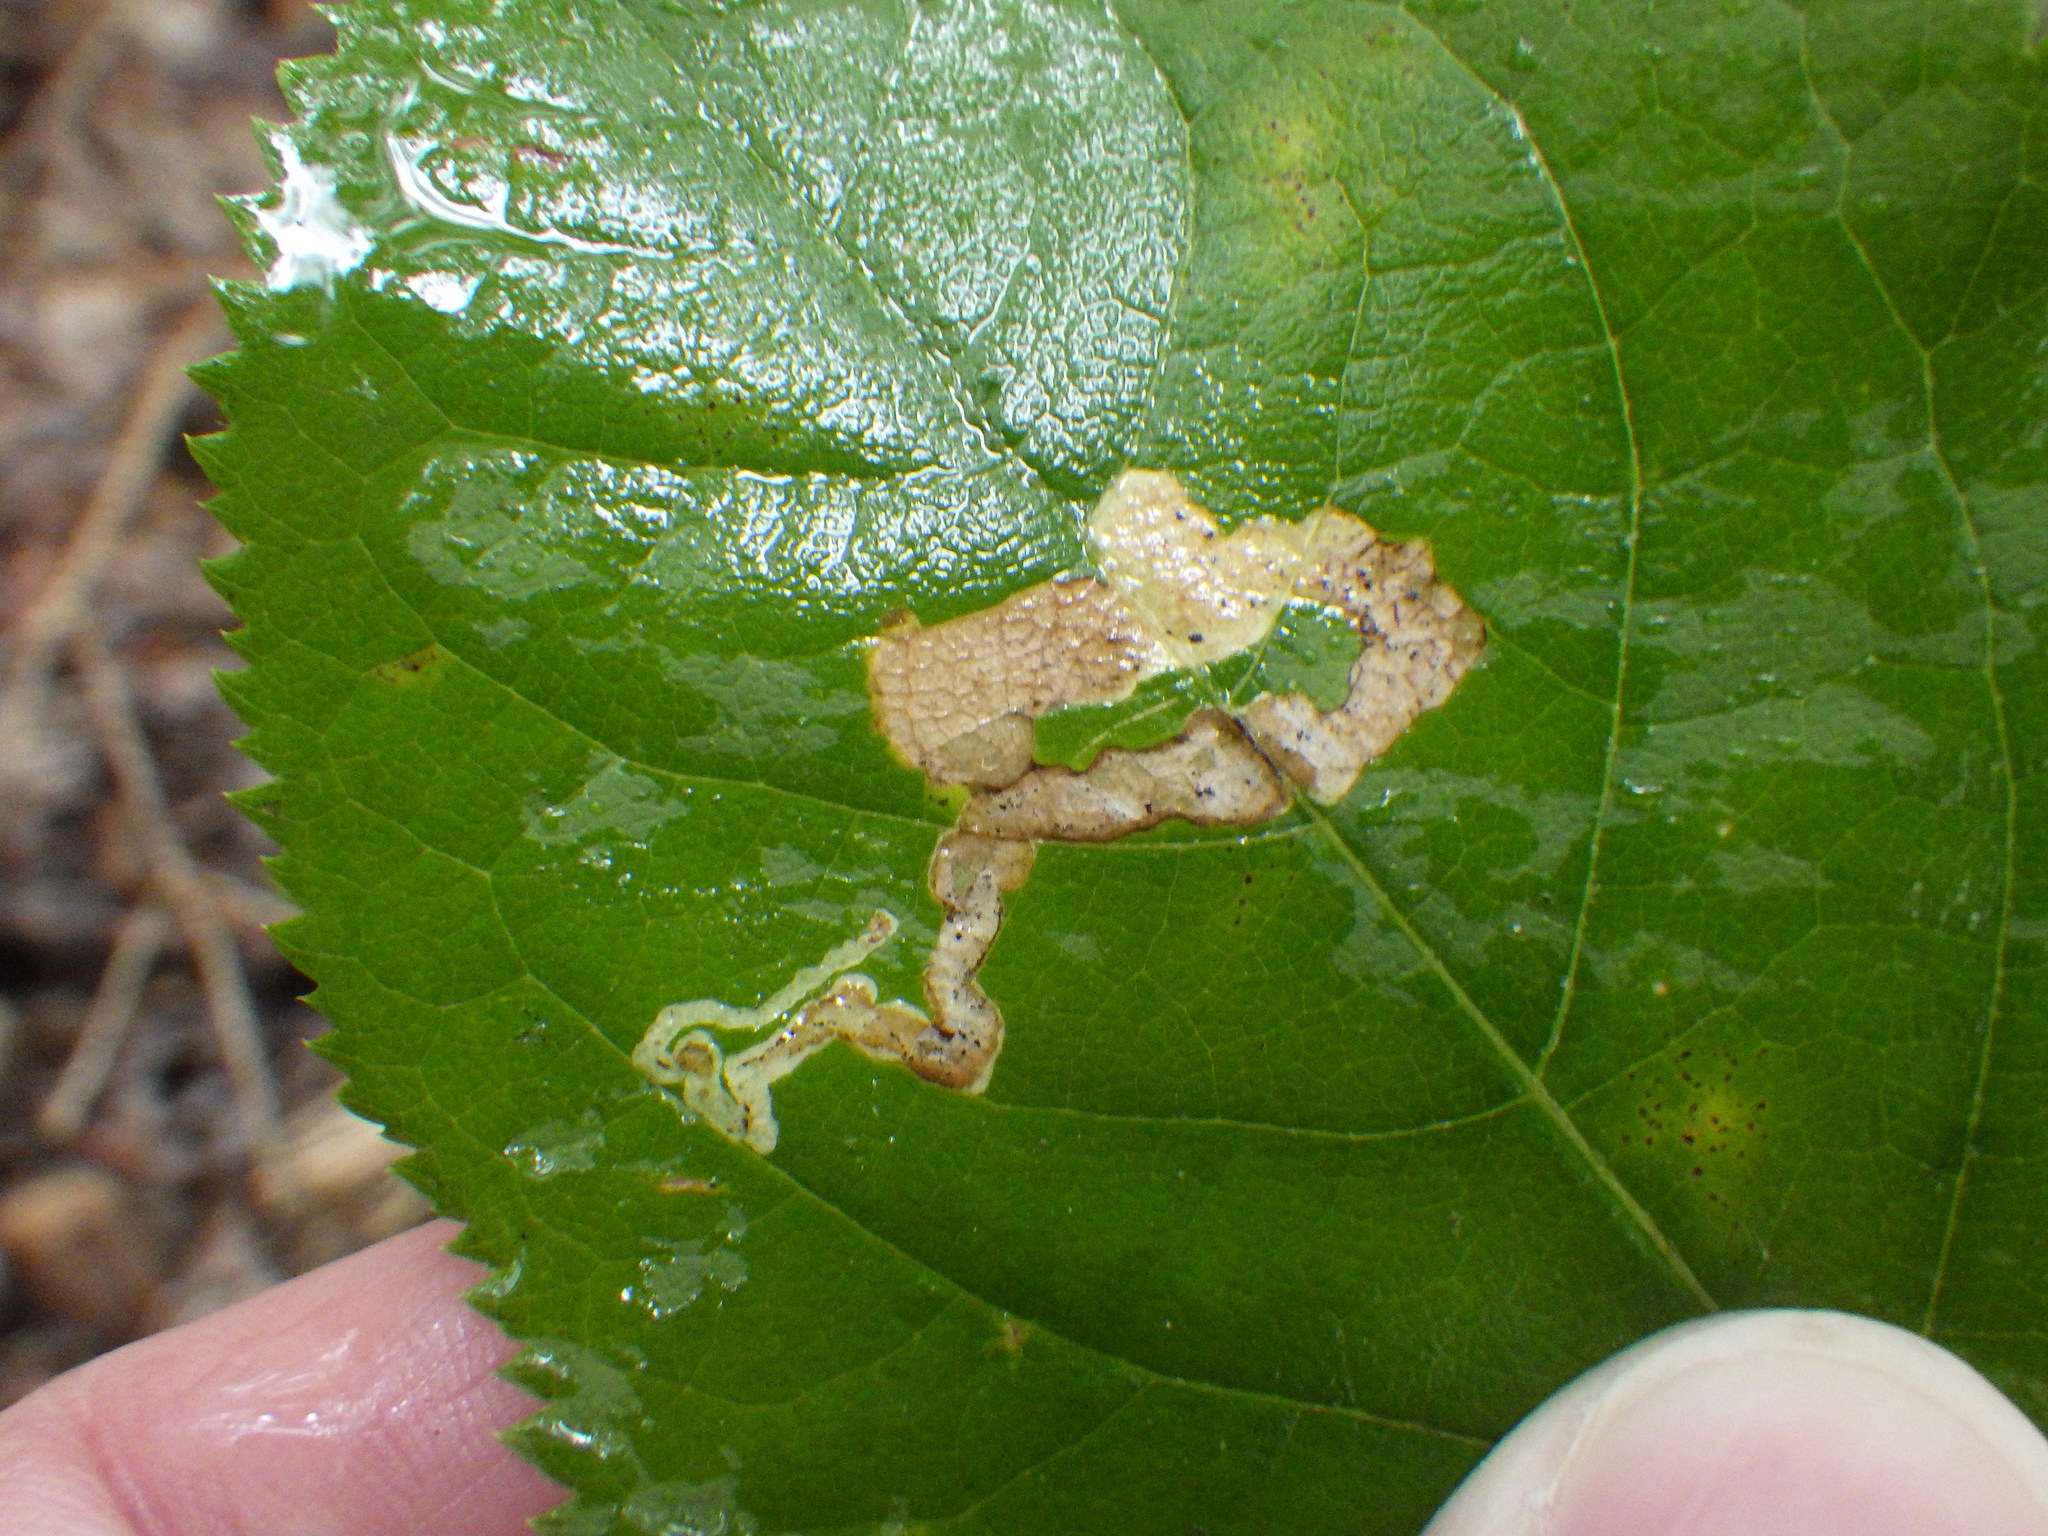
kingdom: Animalia
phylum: Arthropoda
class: Insecta
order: Diptera
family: Agromyzidae
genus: Phytomyza
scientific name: Phytomyza aralivora
